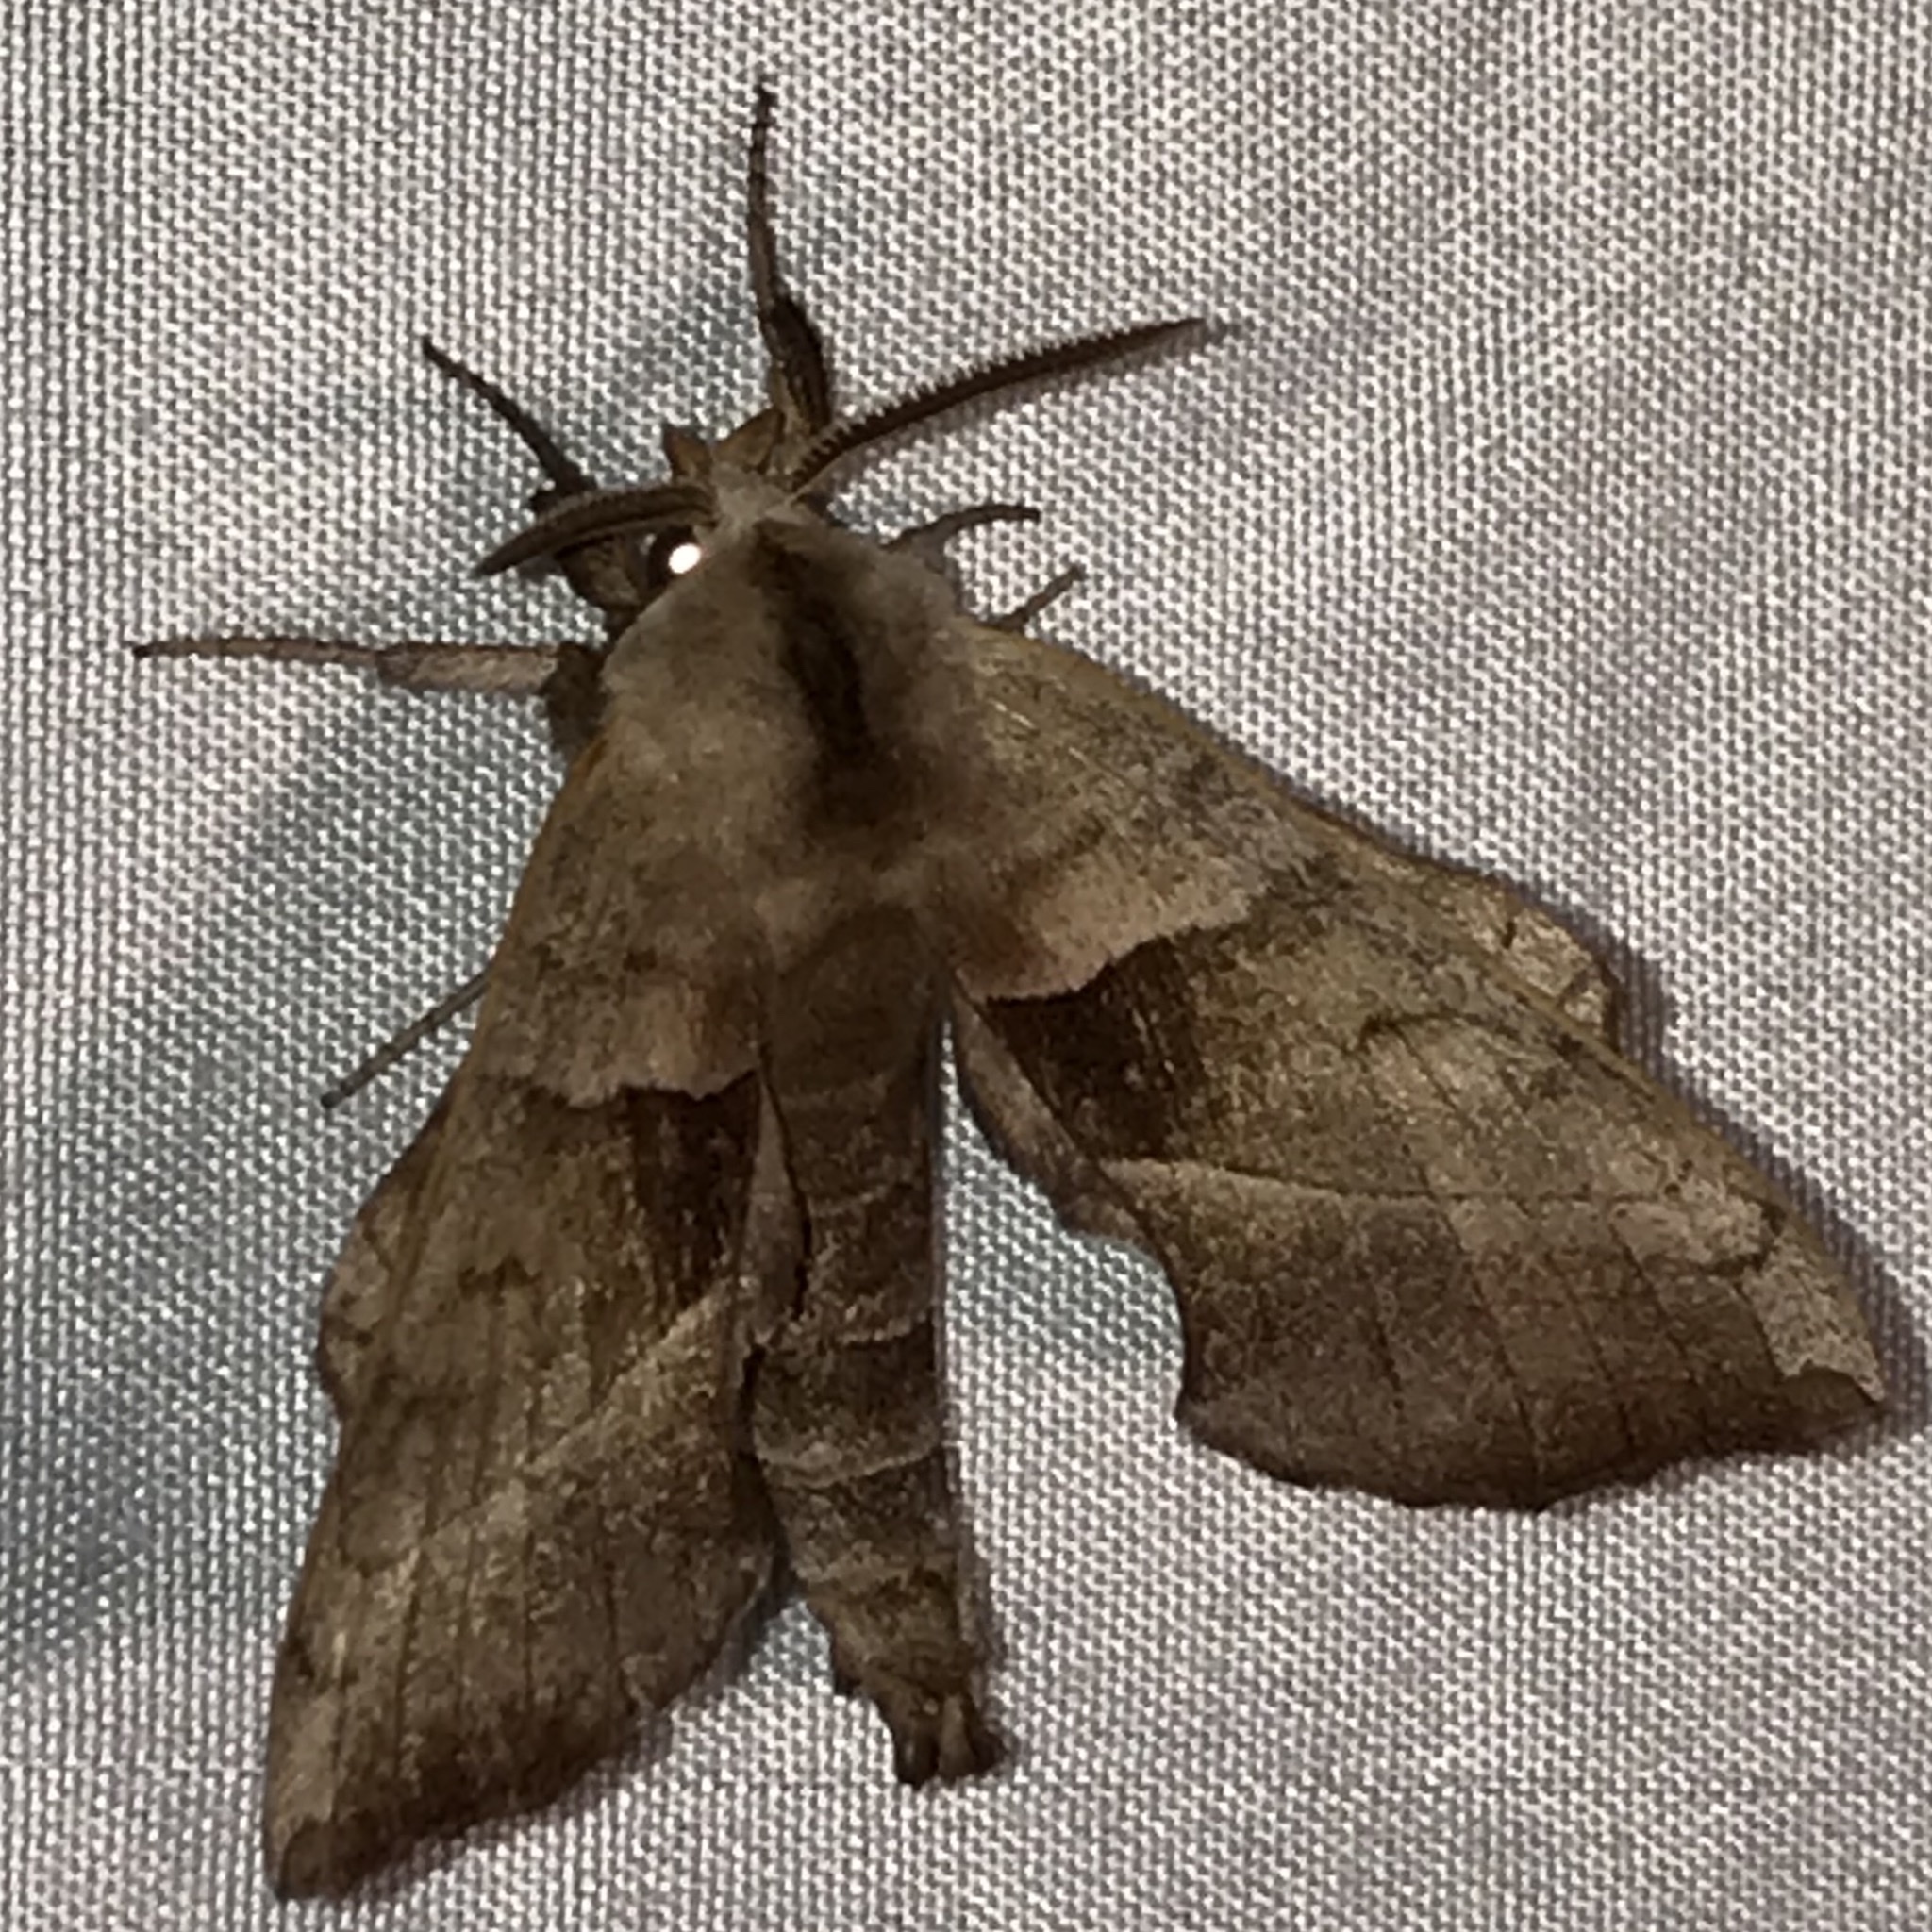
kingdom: Animalia
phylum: Arthropoda
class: Insecta
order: Lepidoptera
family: Sphingidae
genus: Amorpha
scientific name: Amorpha juglandis
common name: Walnut sphinx
